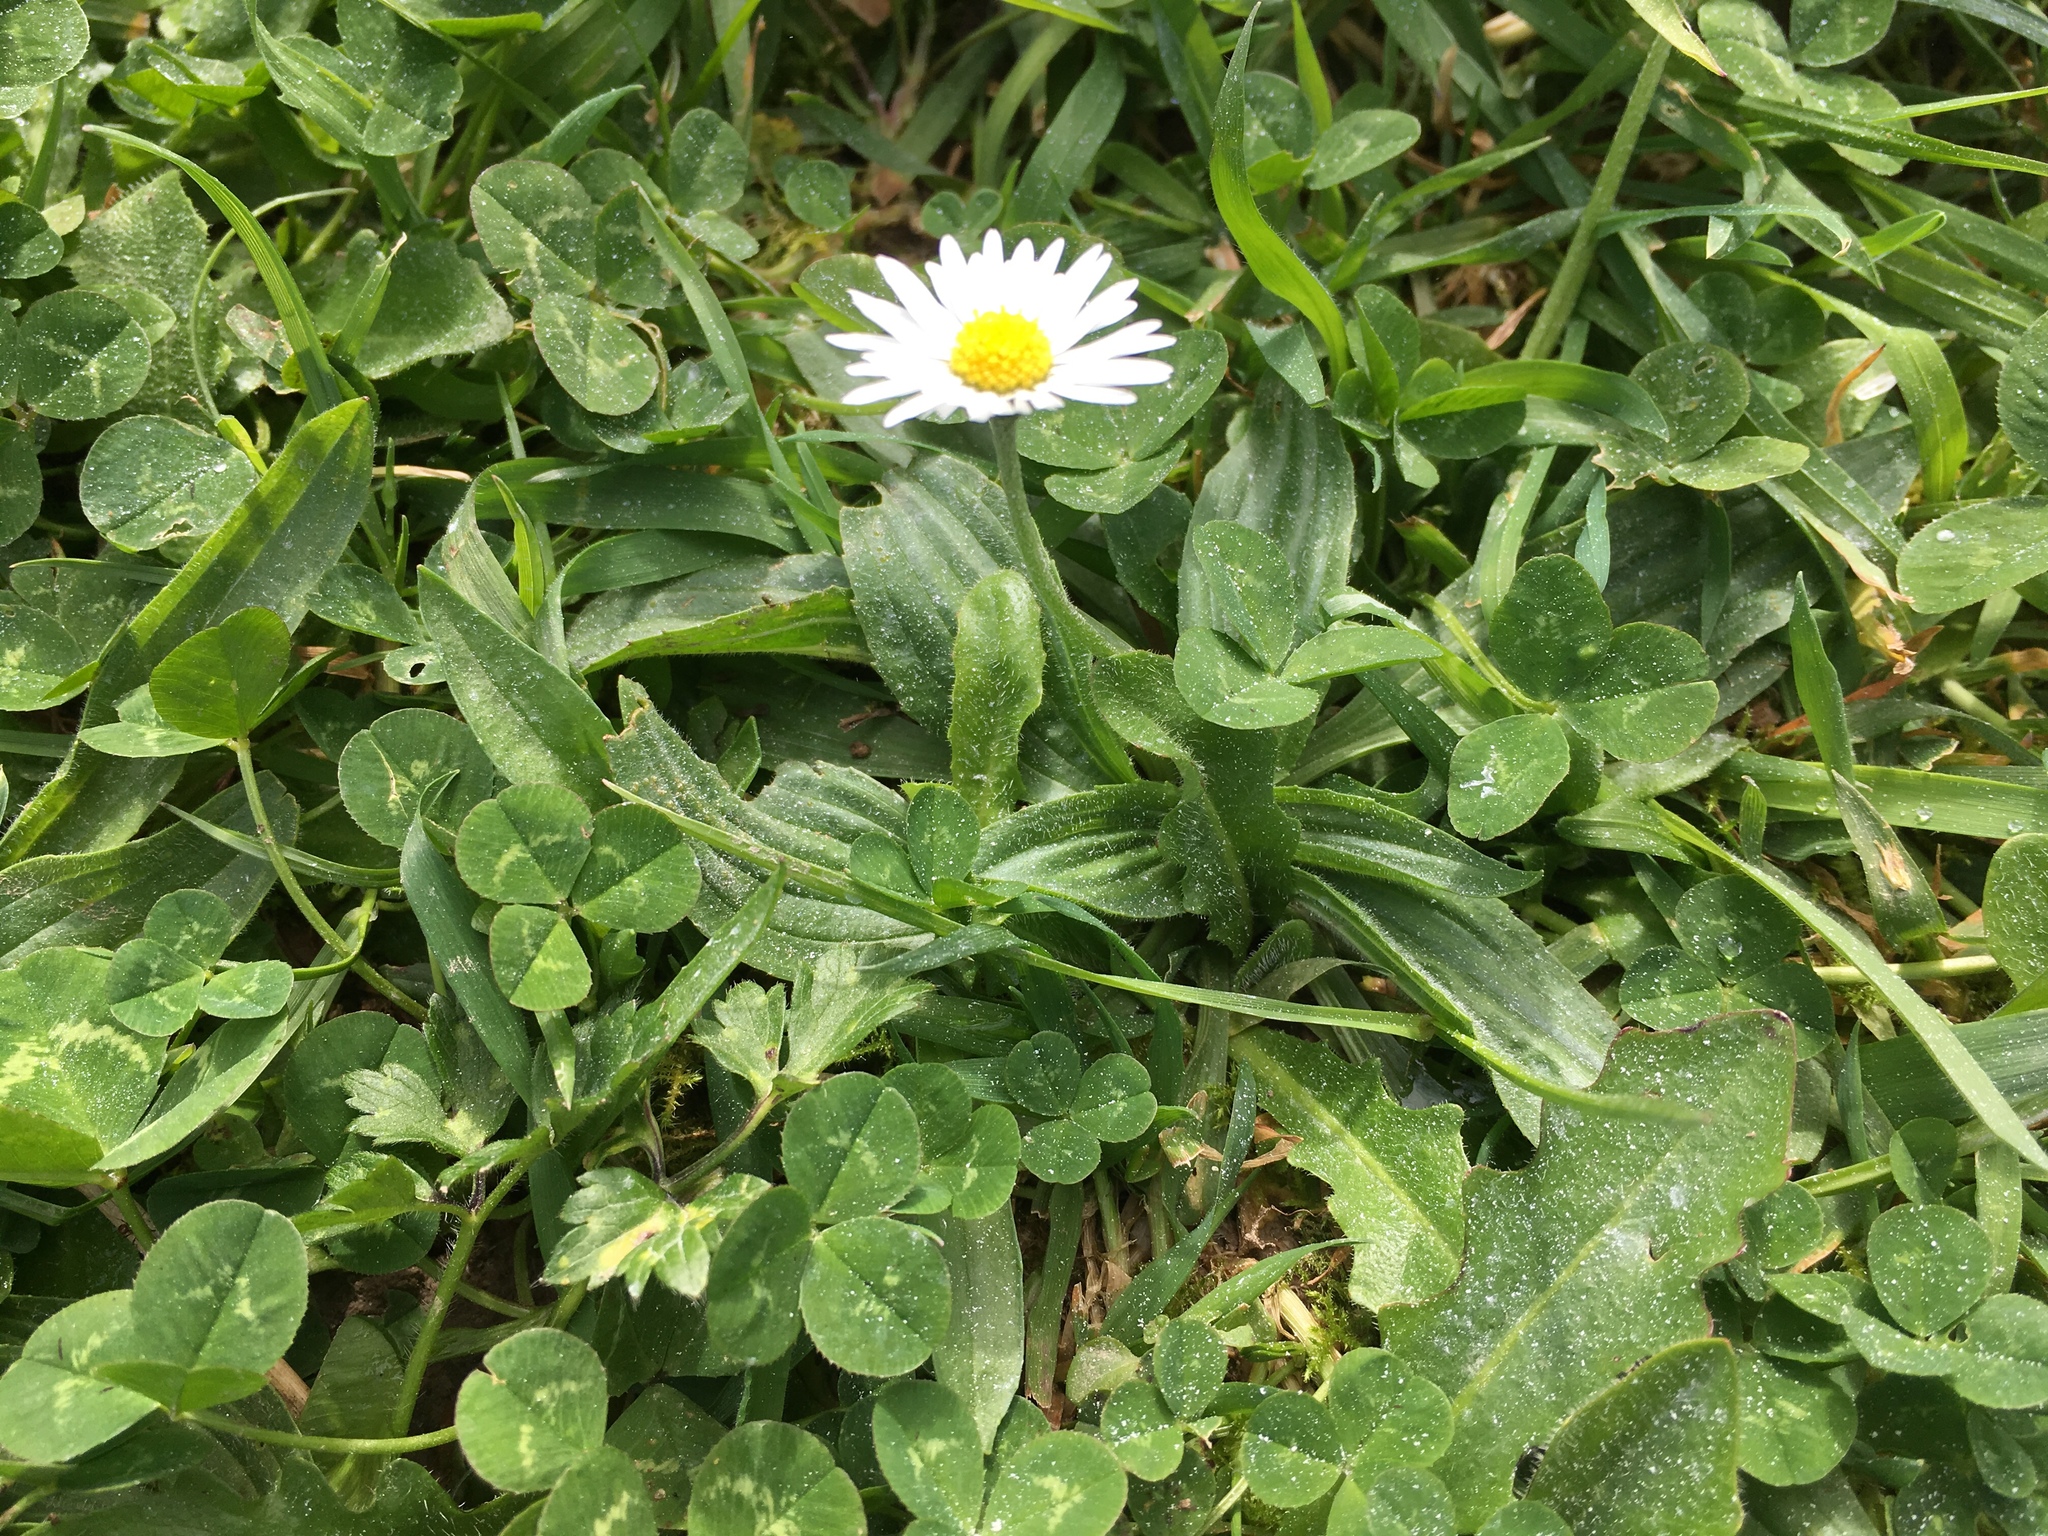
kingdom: Plantae
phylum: Tracheophyta
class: Magnoliopsida
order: Asterales
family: Asteraceae
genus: Bellis
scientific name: Bellis perennis
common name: Lawndaisy
